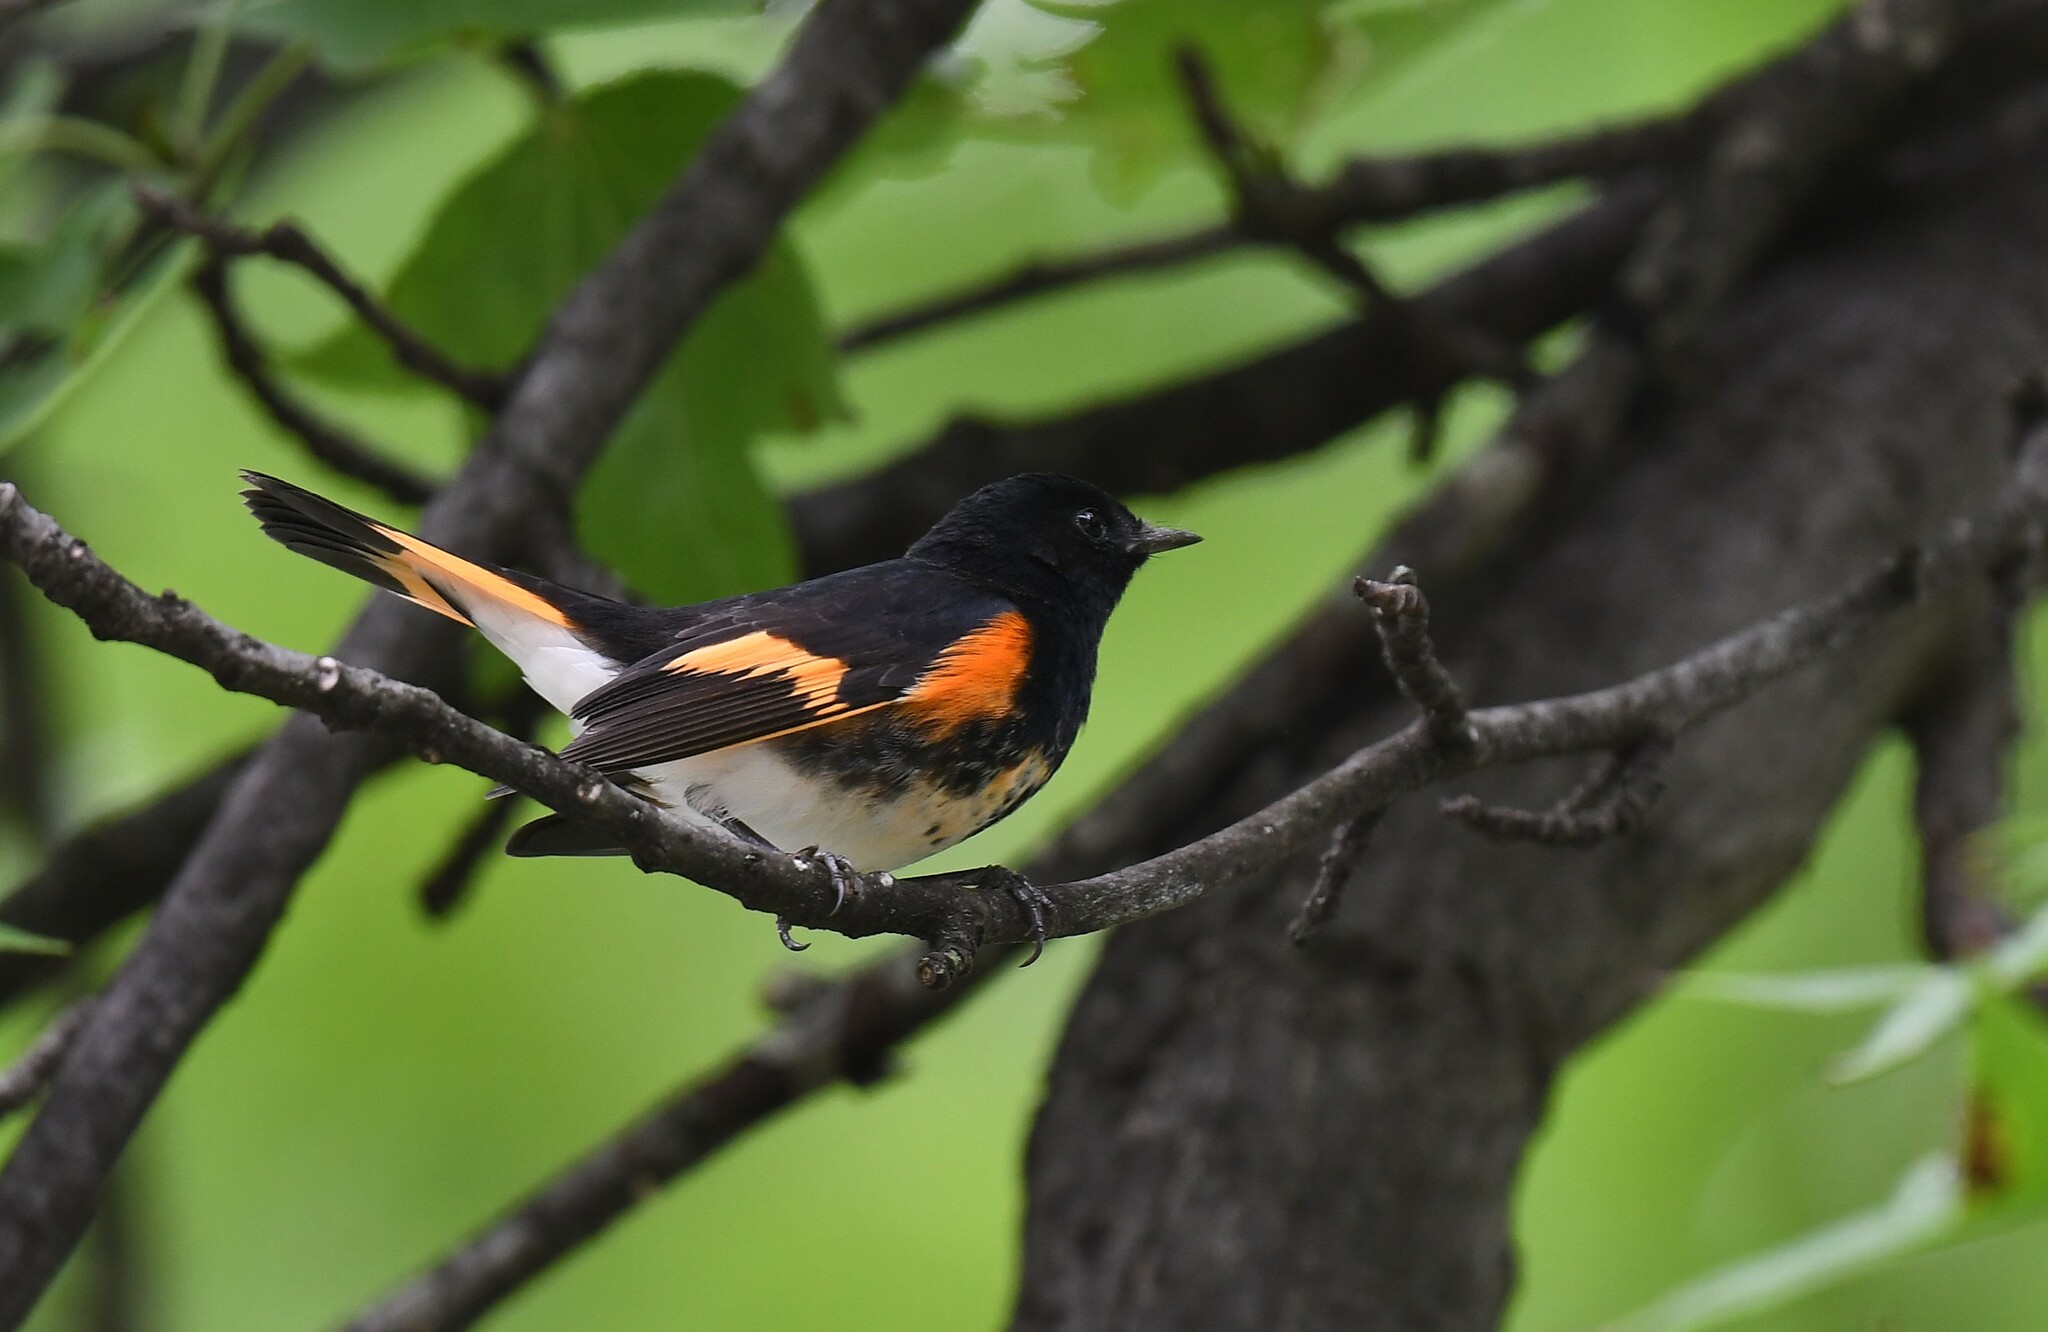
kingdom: Animalia
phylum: Chordata
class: Aves
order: Passeriformes
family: Parulidae
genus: Setophaga
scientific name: Setophaga ruticilla
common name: American redstart
